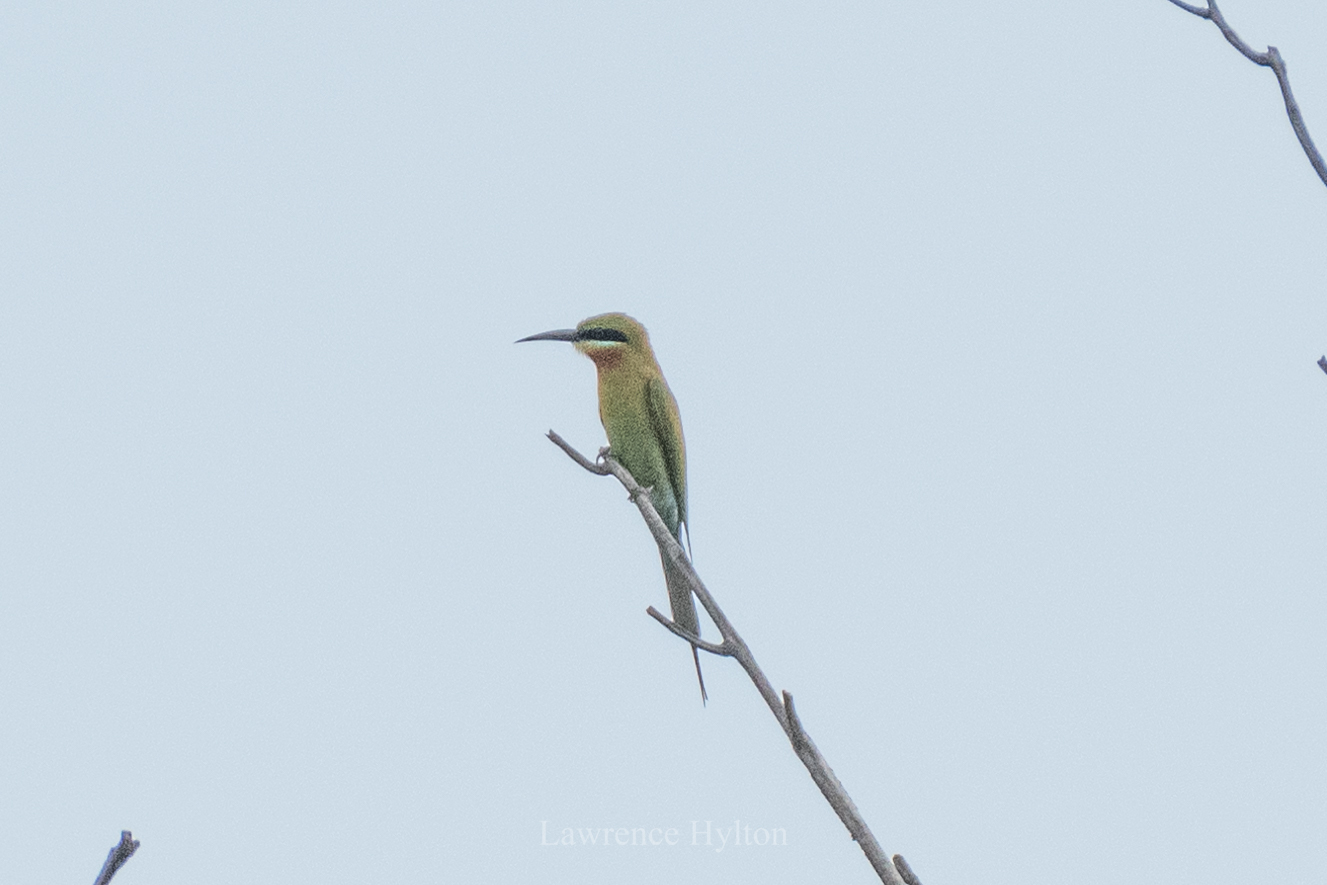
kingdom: Animalia
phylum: Chordata
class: Aves
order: Coraciiformes
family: Meropidae
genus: Merops
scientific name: Merops philippinus
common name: Blue-tailed bee-eater
